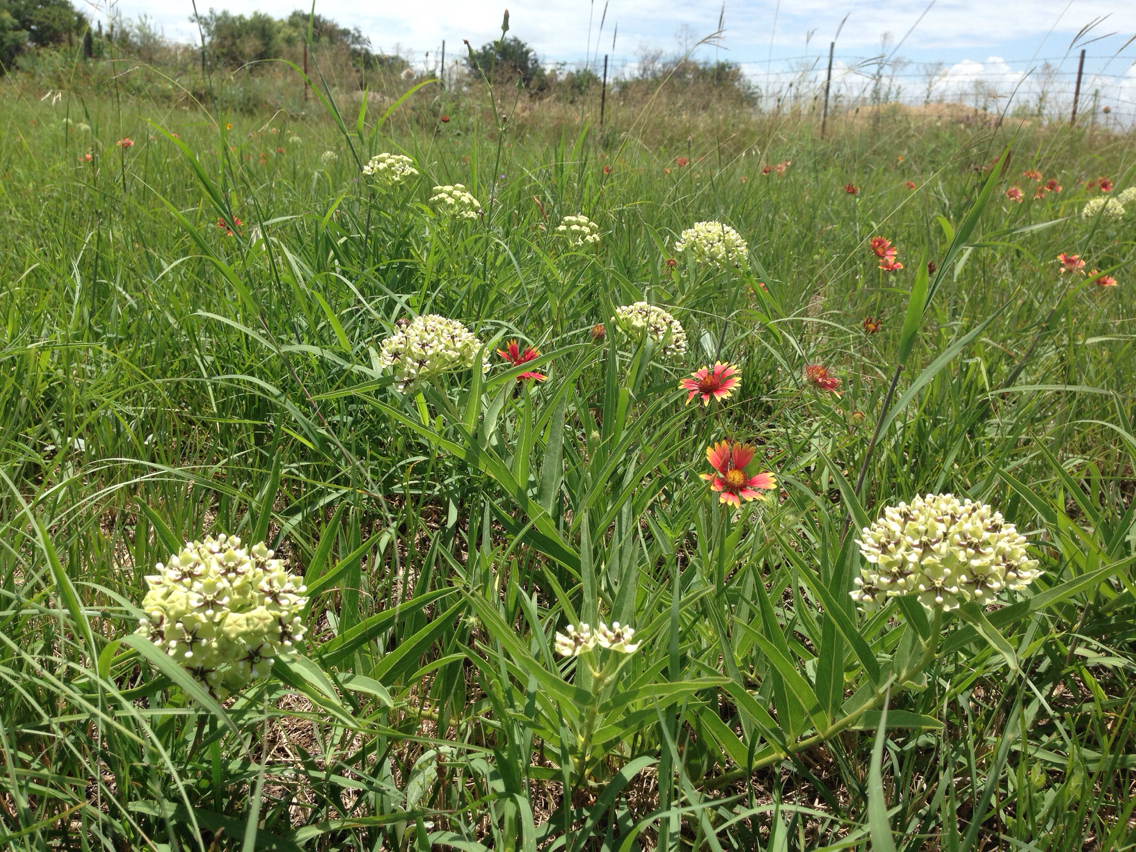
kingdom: Plantae
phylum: Tracheophyta
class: Magnoliopsida
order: Gentianales
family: Apocynaceae
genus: Asclepias
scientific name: Asclepias asperula
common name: Antelope horns
